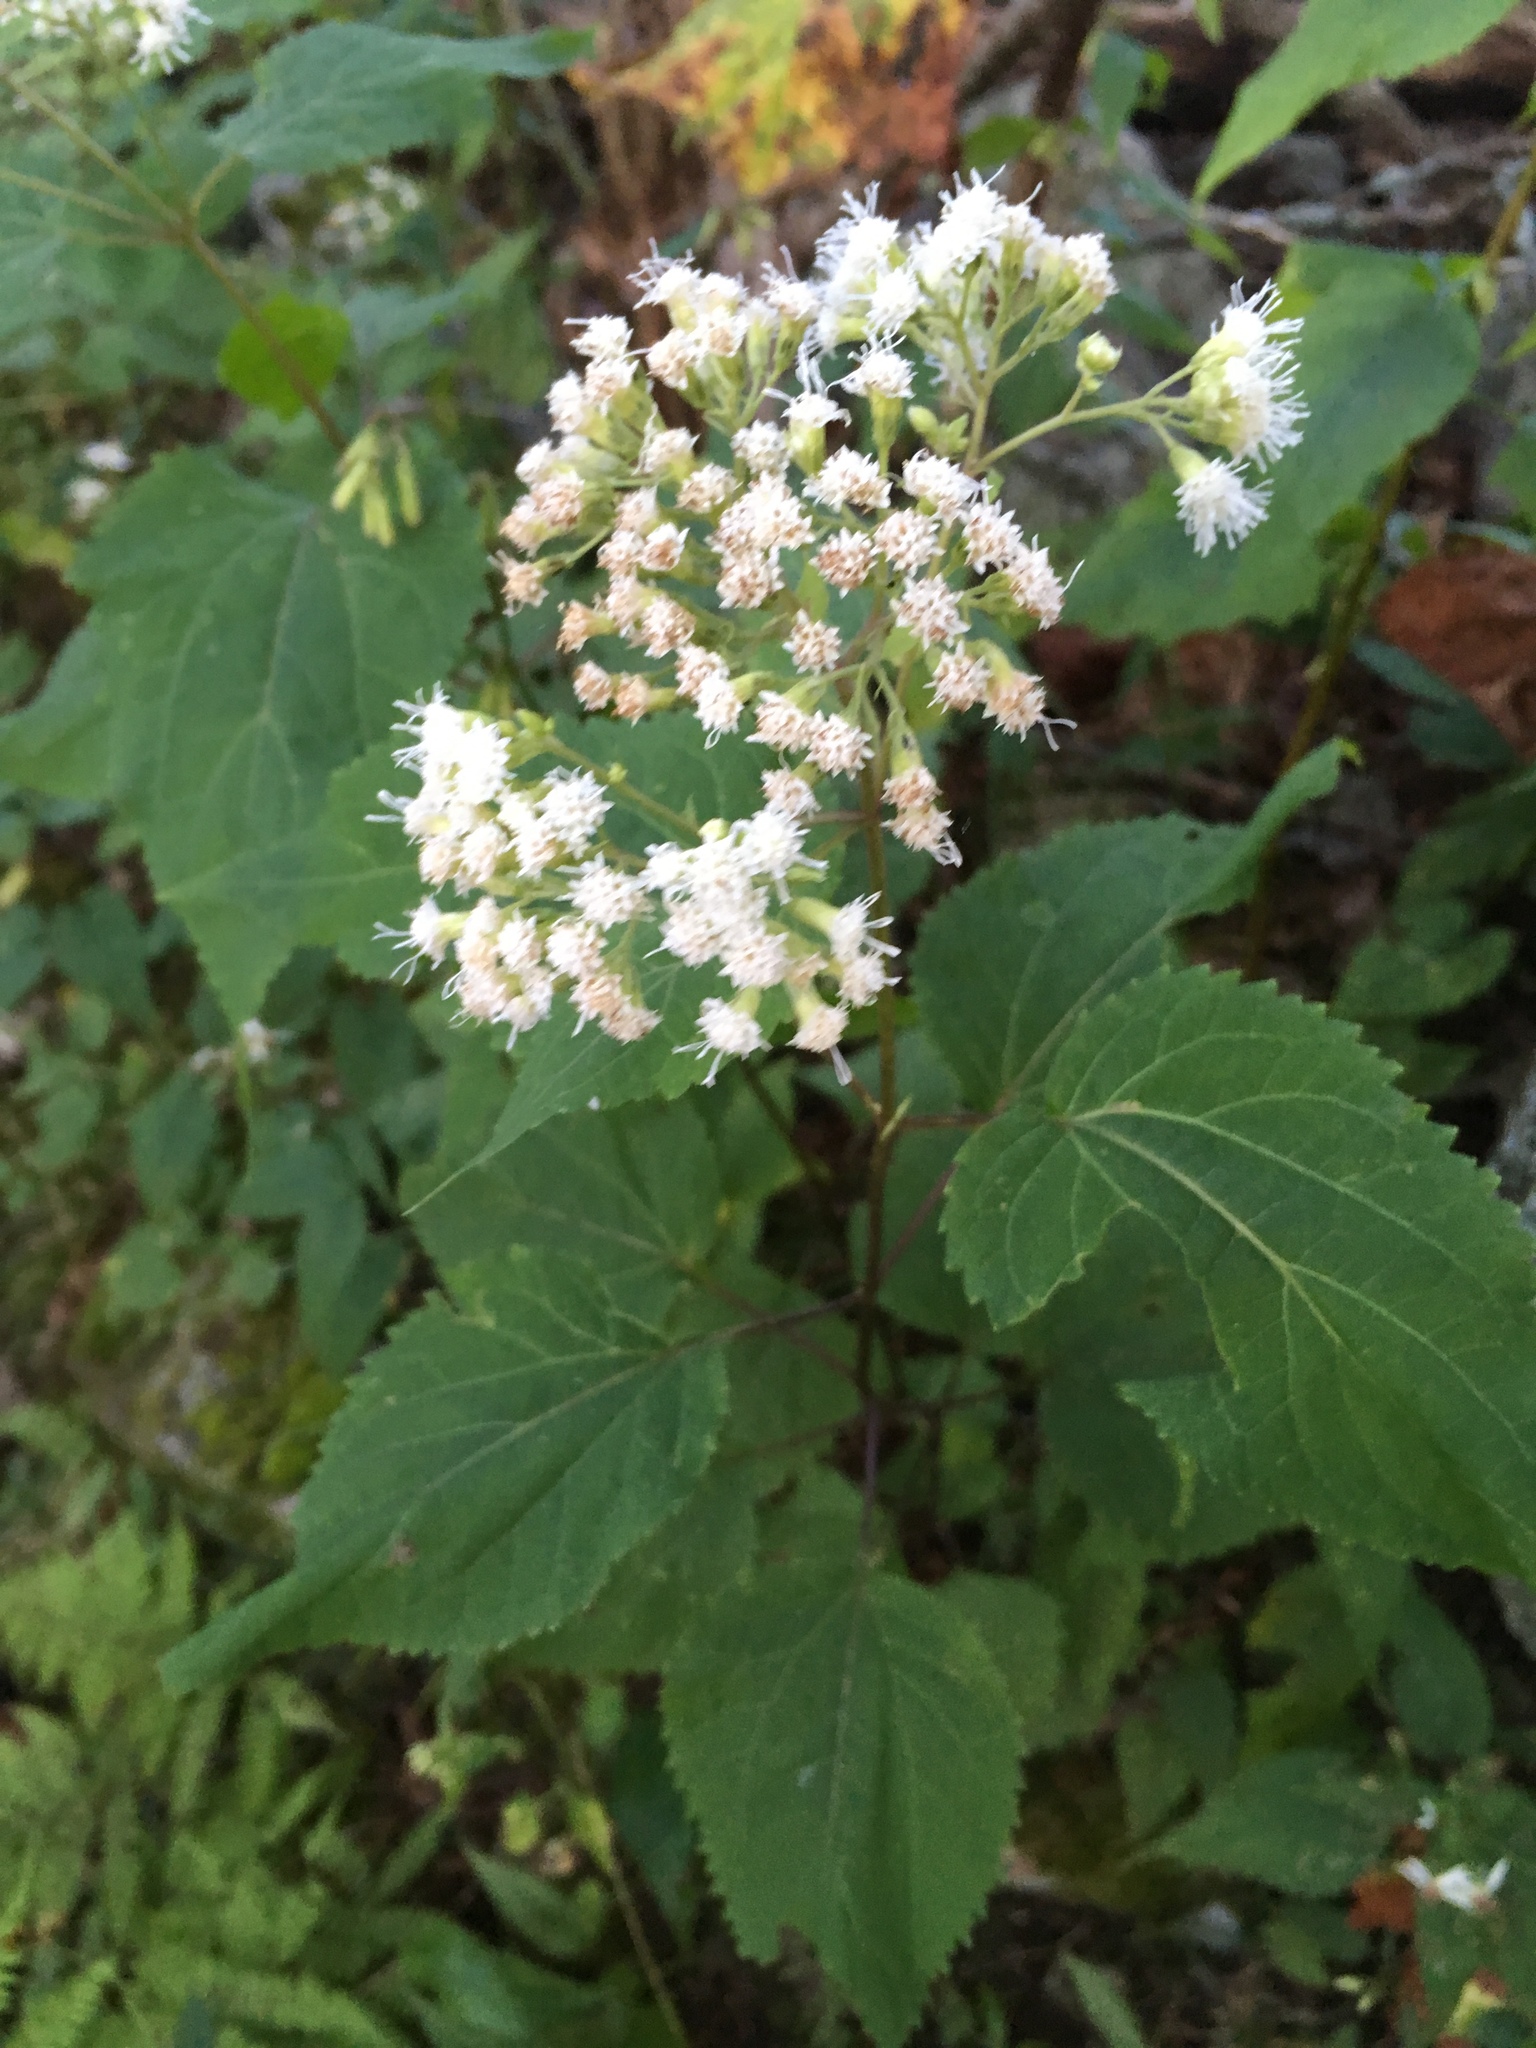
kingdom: Plantae
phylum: Tracheophyta
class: Magnoliopsida
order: Asterales
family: Asteraceae
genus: Ageratina
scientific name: Ageratina altissima
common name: White snakeroot
